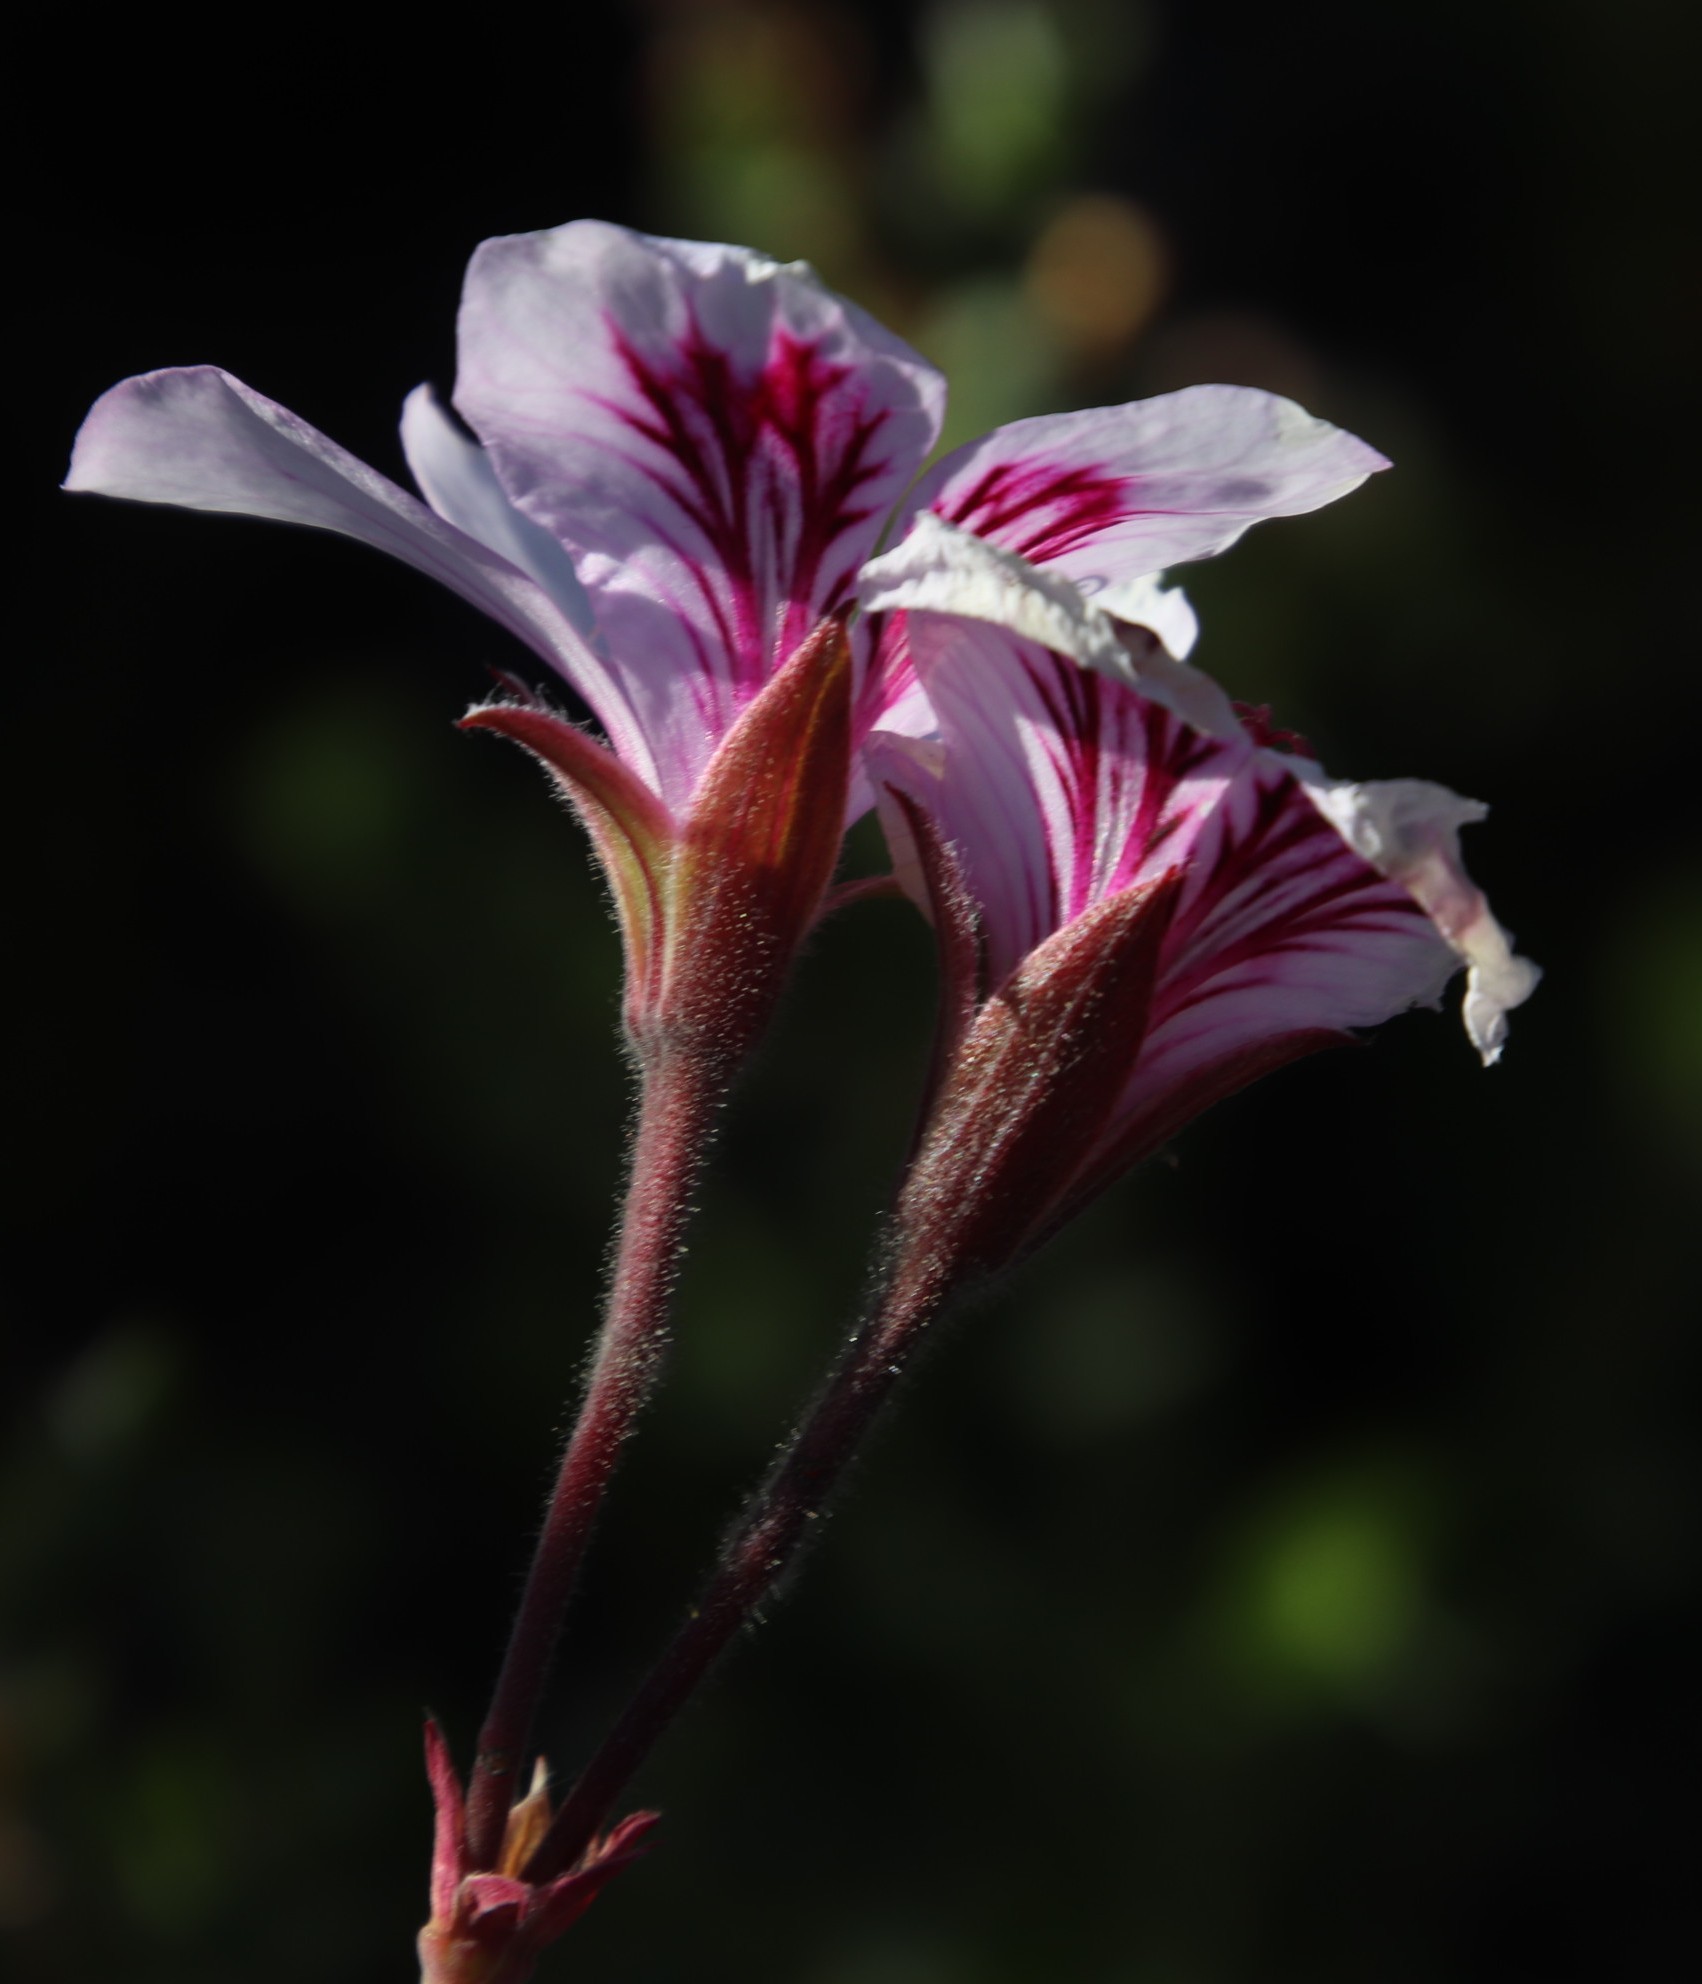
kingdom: Plantae
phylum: Tracheophyta
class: Magnoliopsida
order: Geraniales
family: Geraniaceae
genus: Pelargonium
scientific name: Pelargonium betulinum
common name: Birch-leaf pelargonium
